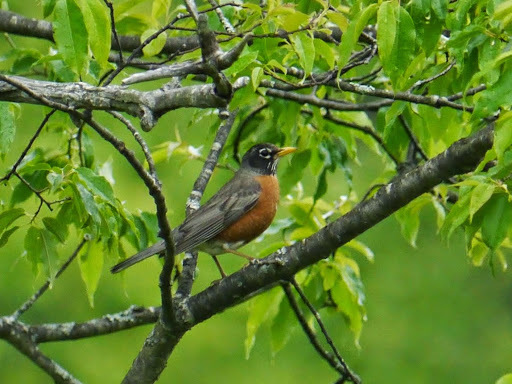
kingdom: Animalia
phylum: Chordata
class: Aves
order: Passeriformes
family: Turdidae
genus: Turdus
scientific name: Turdus migratorius
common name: American robin
